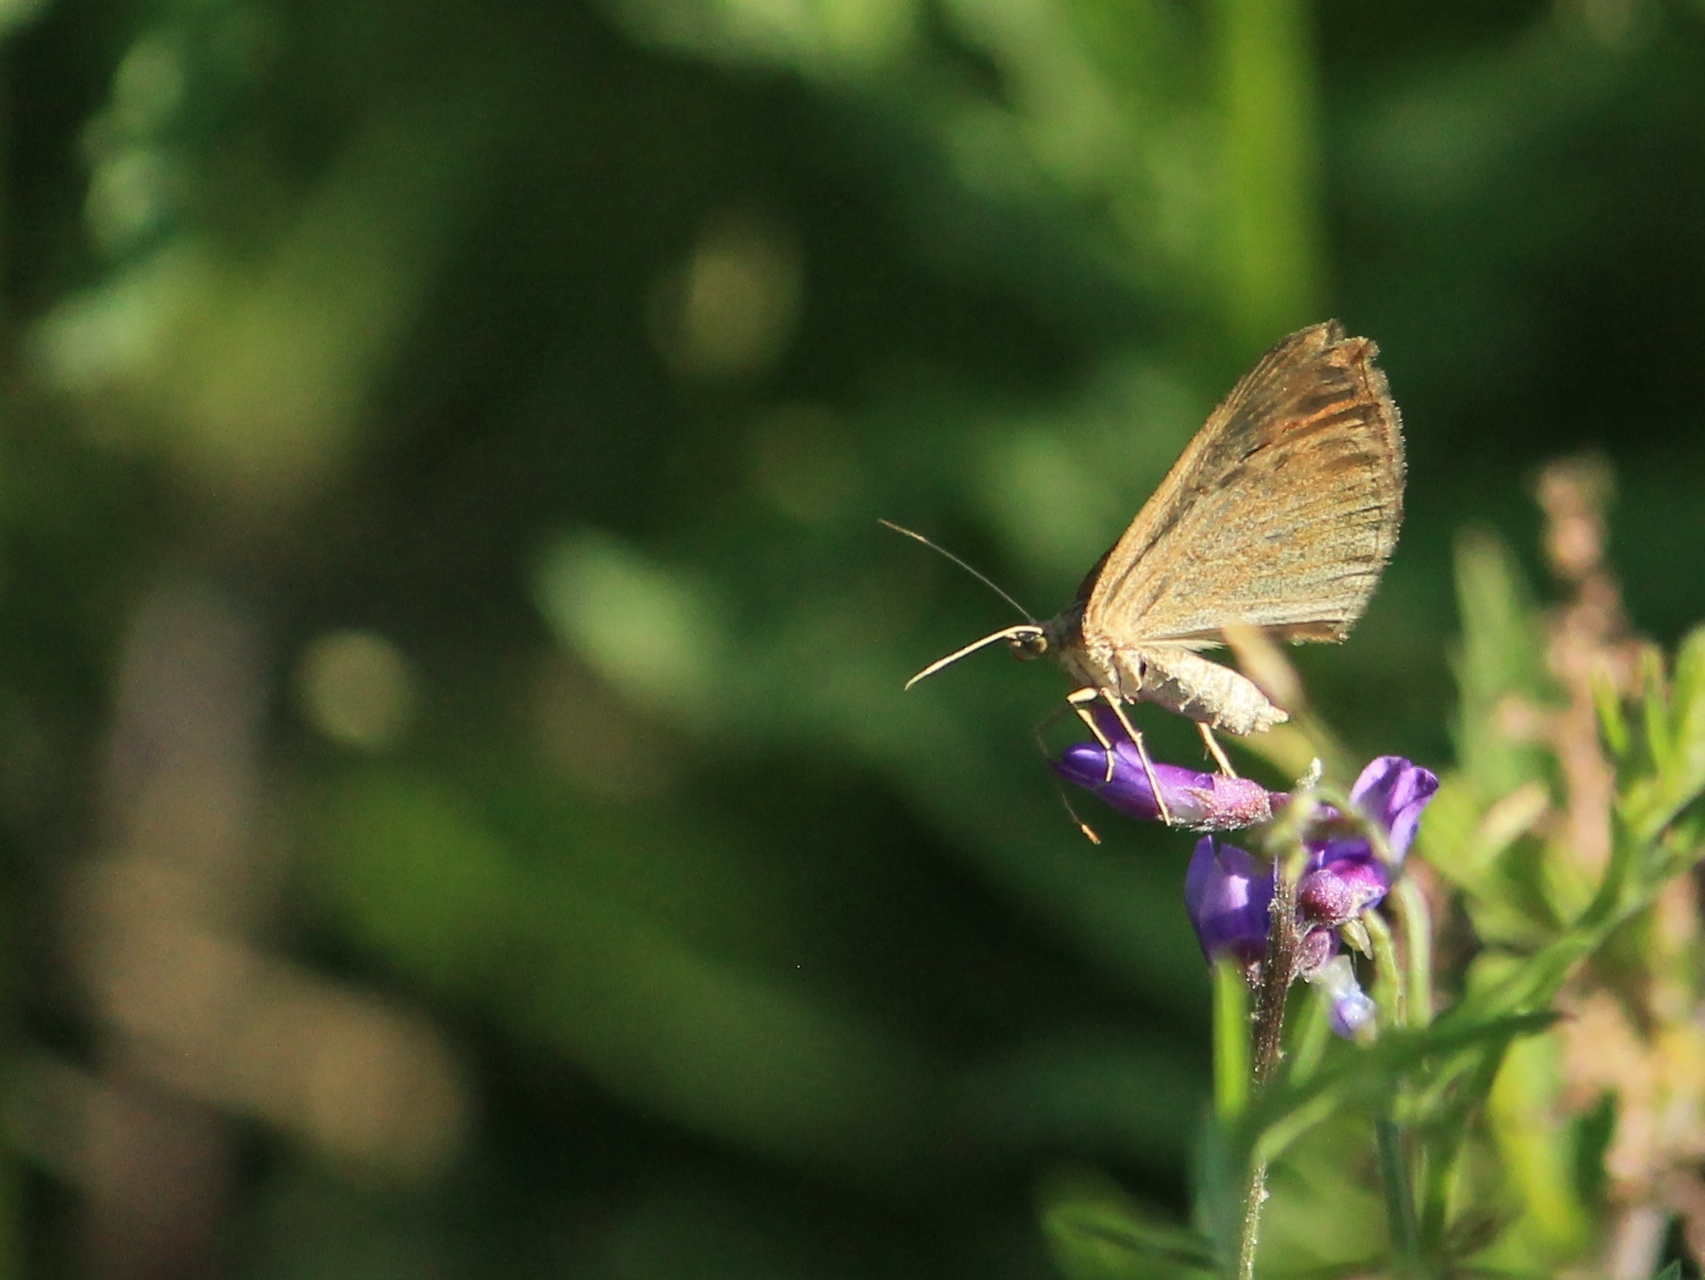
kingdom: Animalia
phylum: Arthropoda
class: Insecta
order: Lepidoptera
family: Geometridae
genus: Scotopteryx
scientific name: Scotopteryx chenopodiata
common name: Shaded broad-bar
